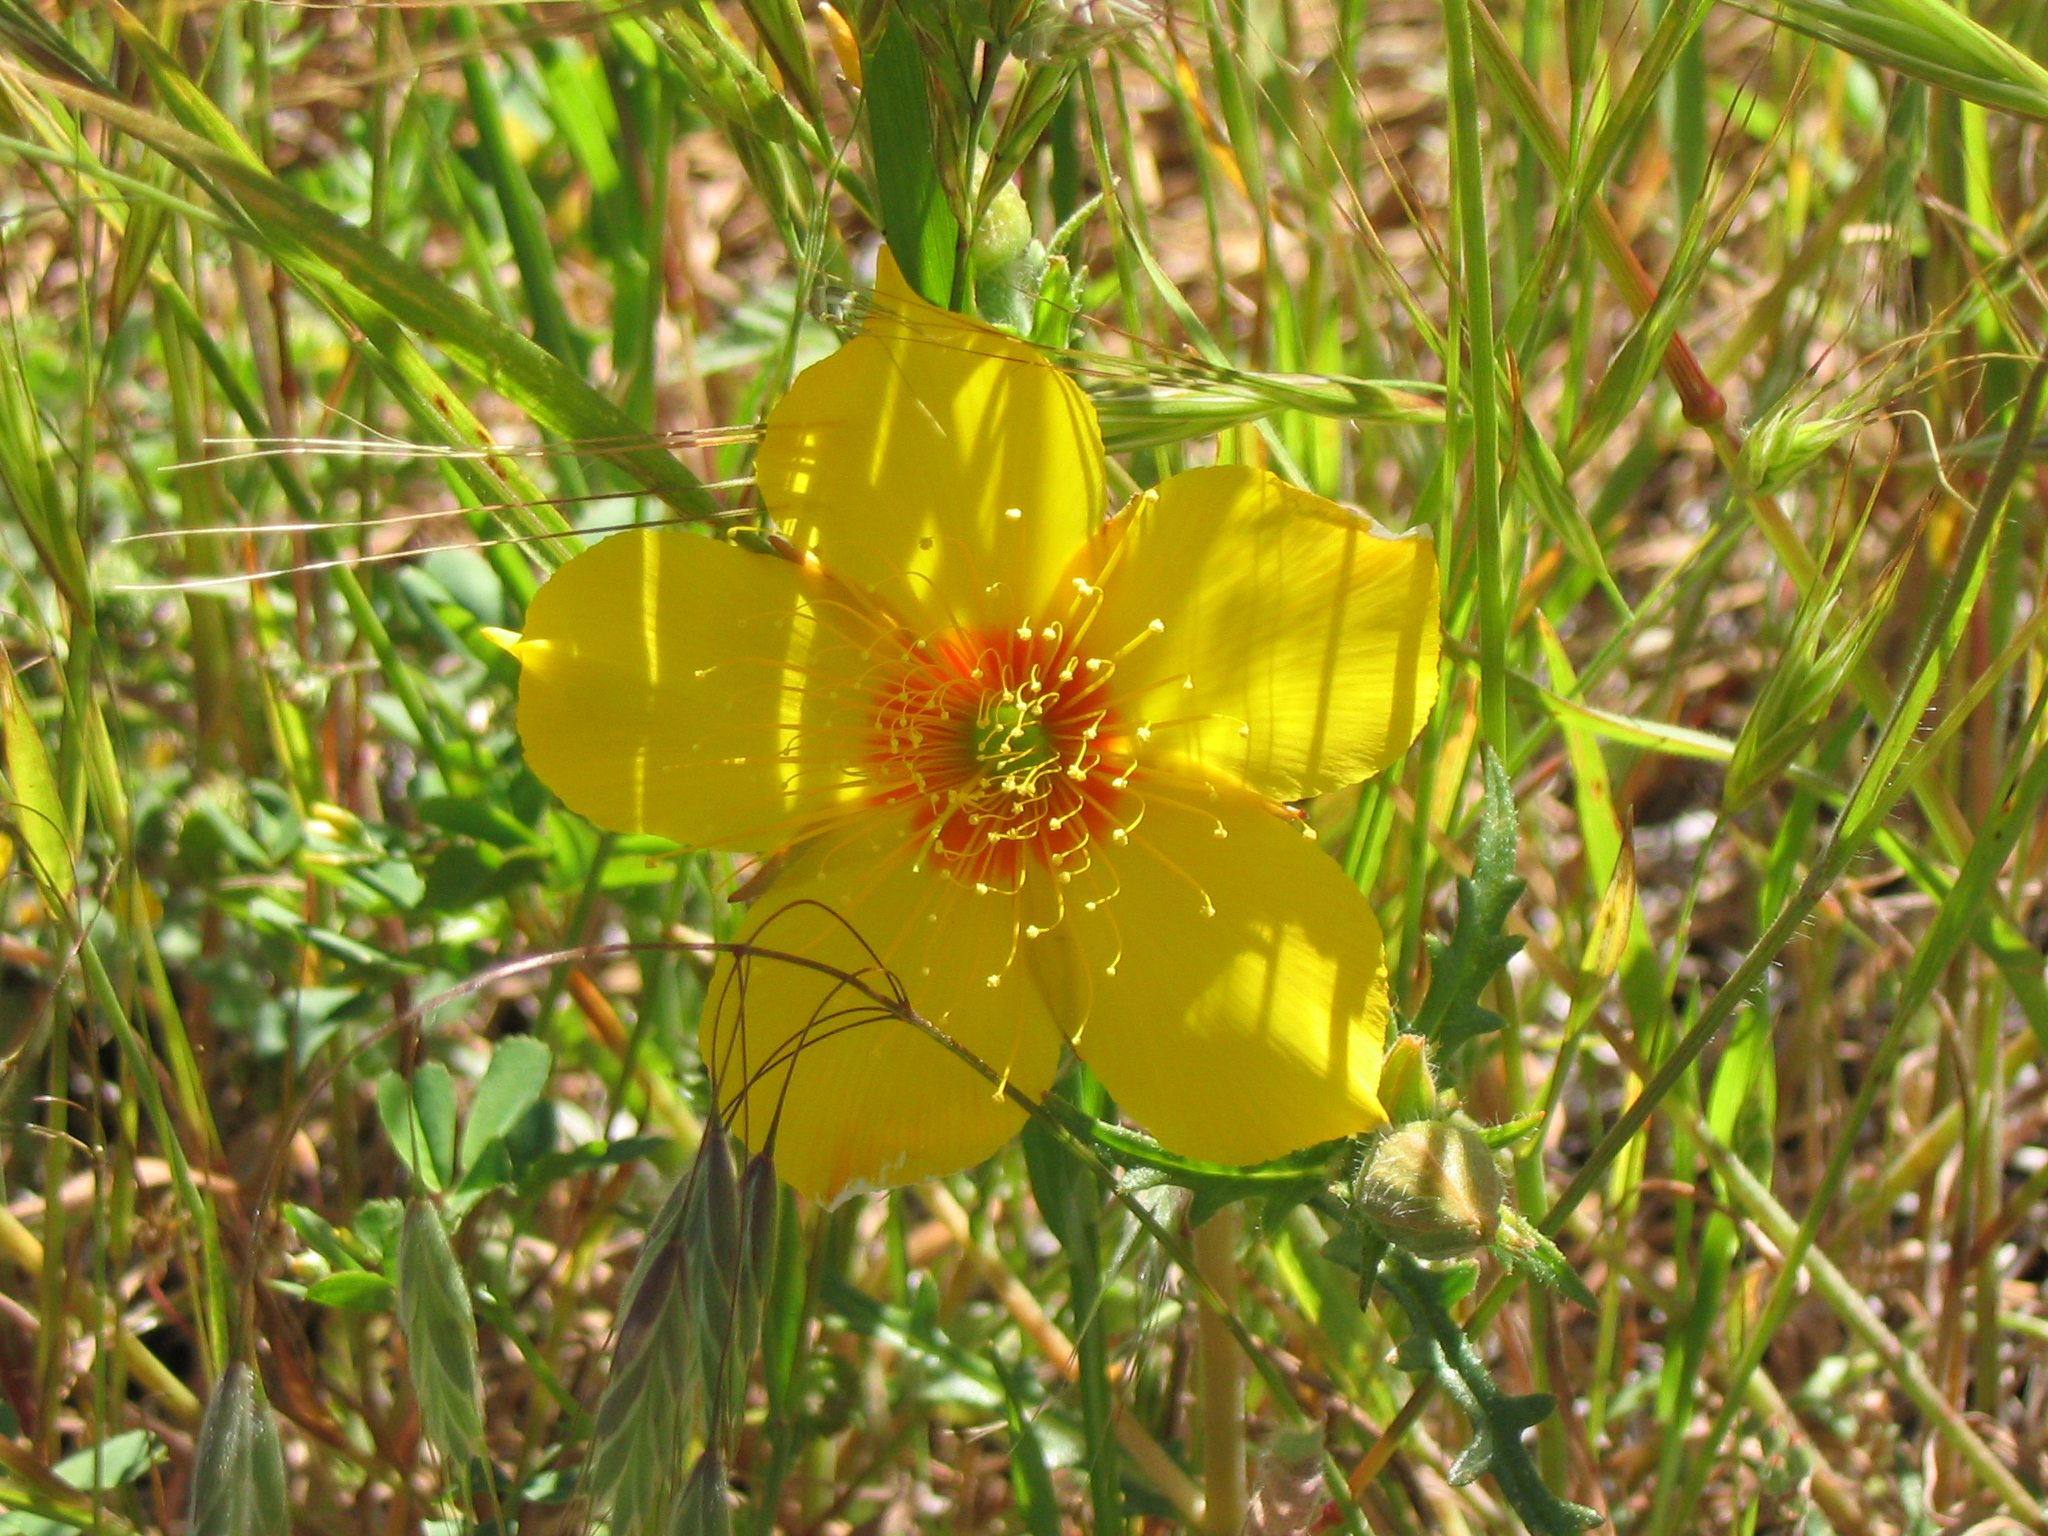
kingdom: Plantae
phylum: Tracheophyta
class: Magnoliopsida
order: Cornales
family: Loasaceae
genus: Mentzelia
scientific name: Mentzelia lindleyi
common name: Golden bartonia
